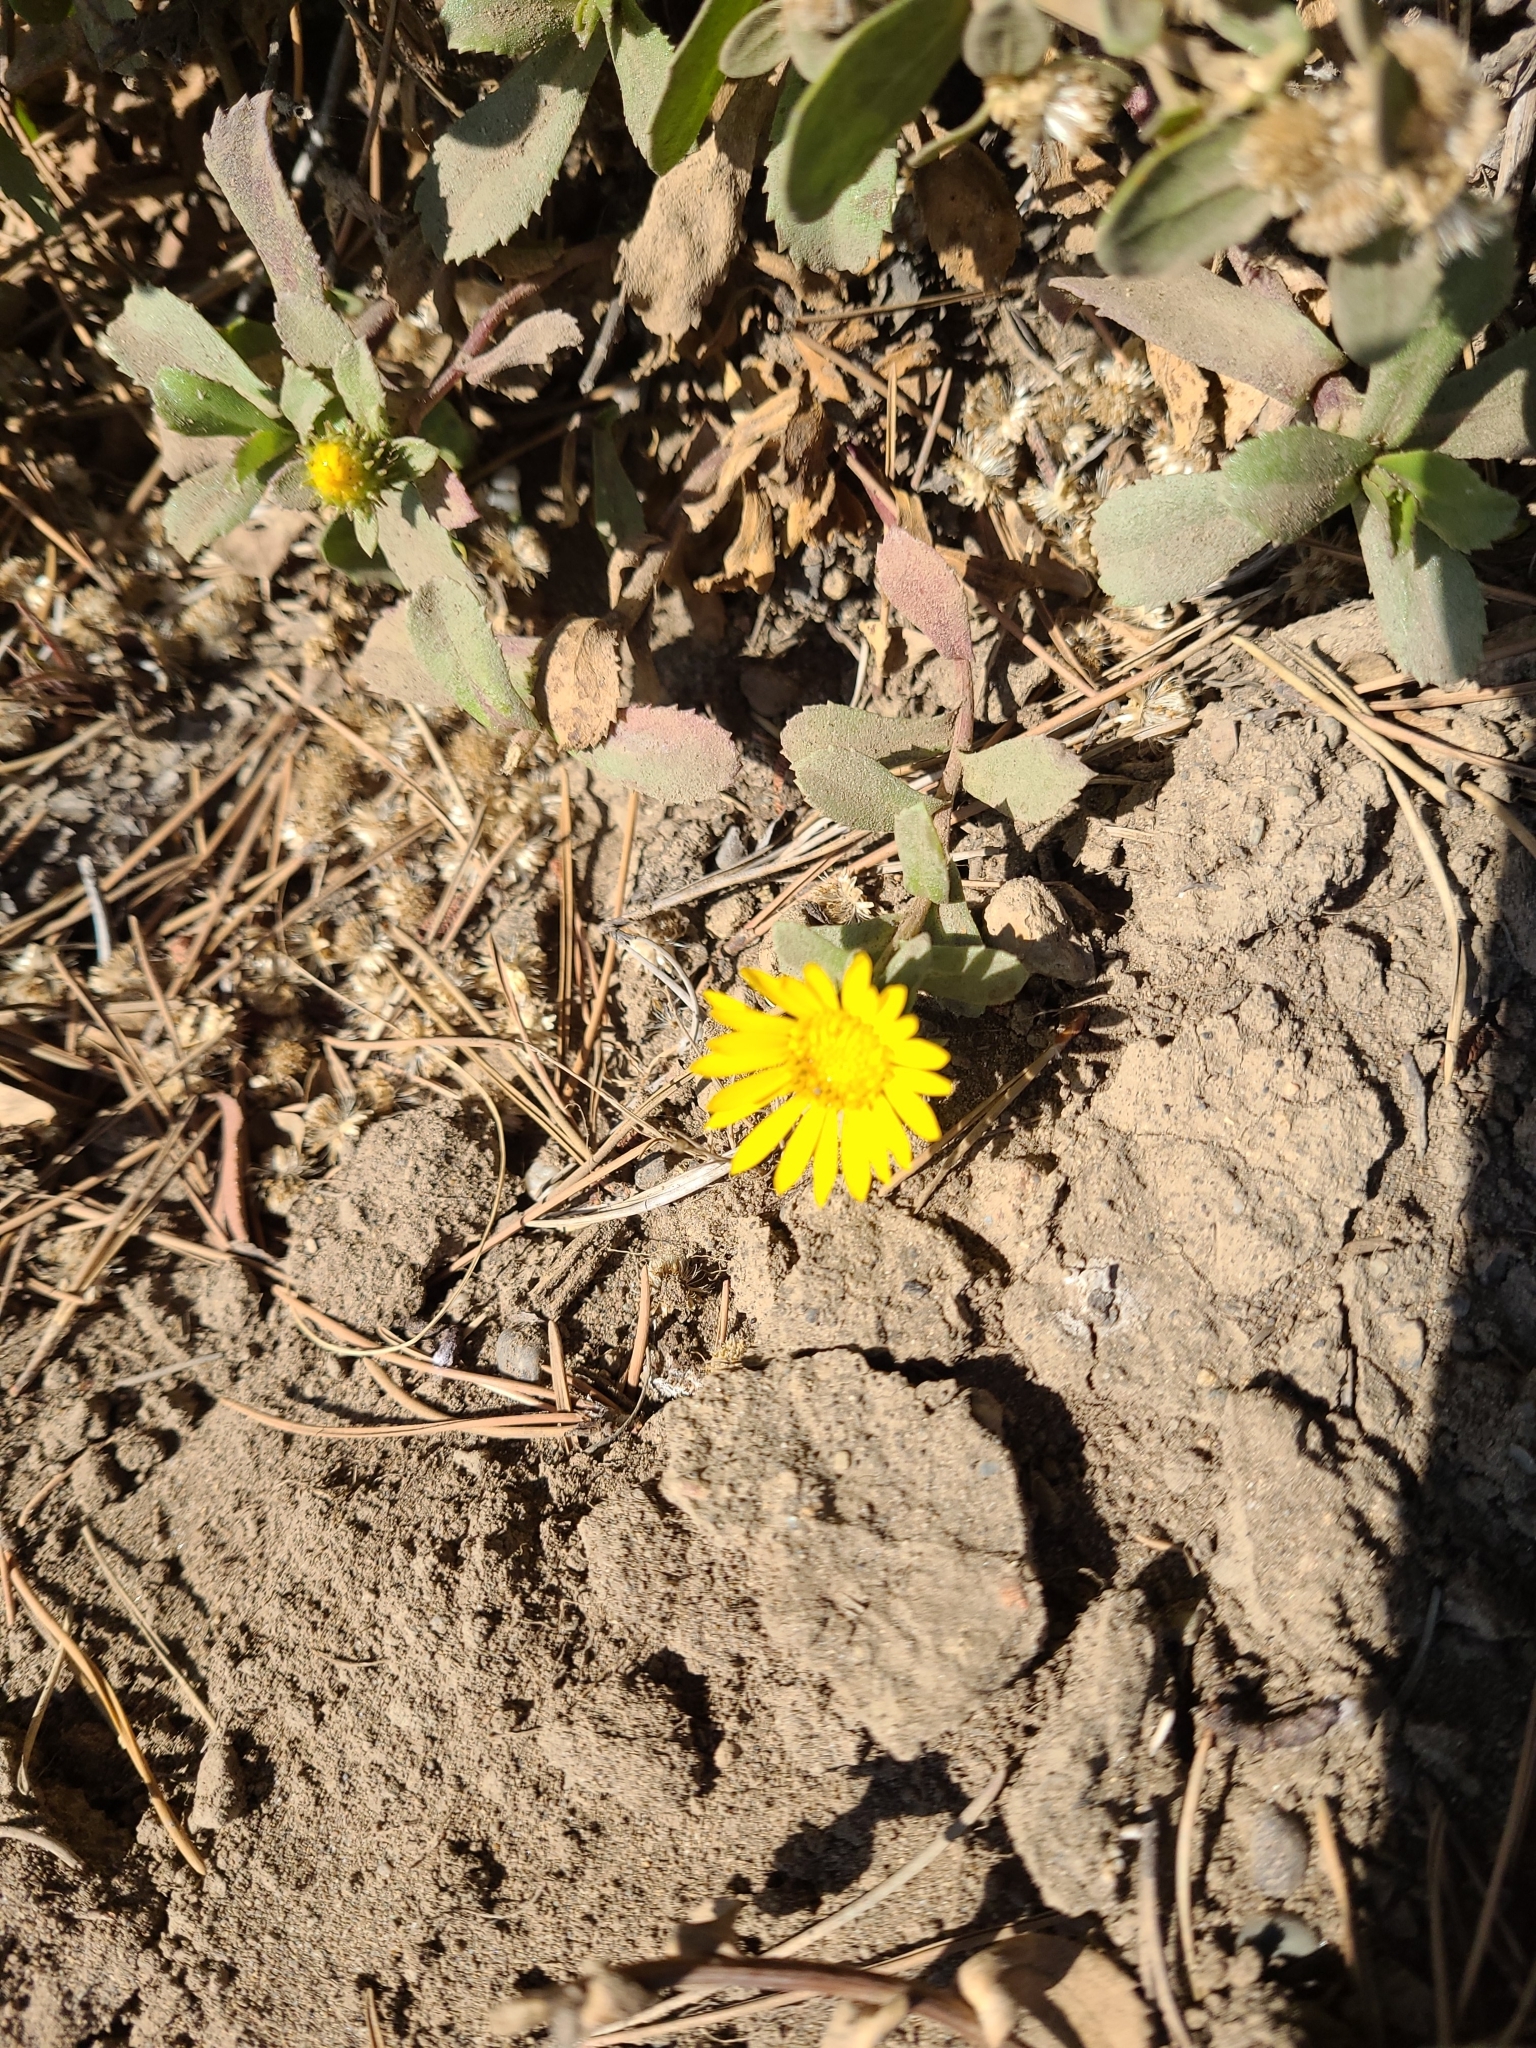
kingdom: Plantae
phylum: Tracheophyta
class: Magnoliopsida
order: Asterales
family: Asteraceae
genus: Grindelia
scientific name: Grindelia hirsutula
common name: Hairy gumweed
